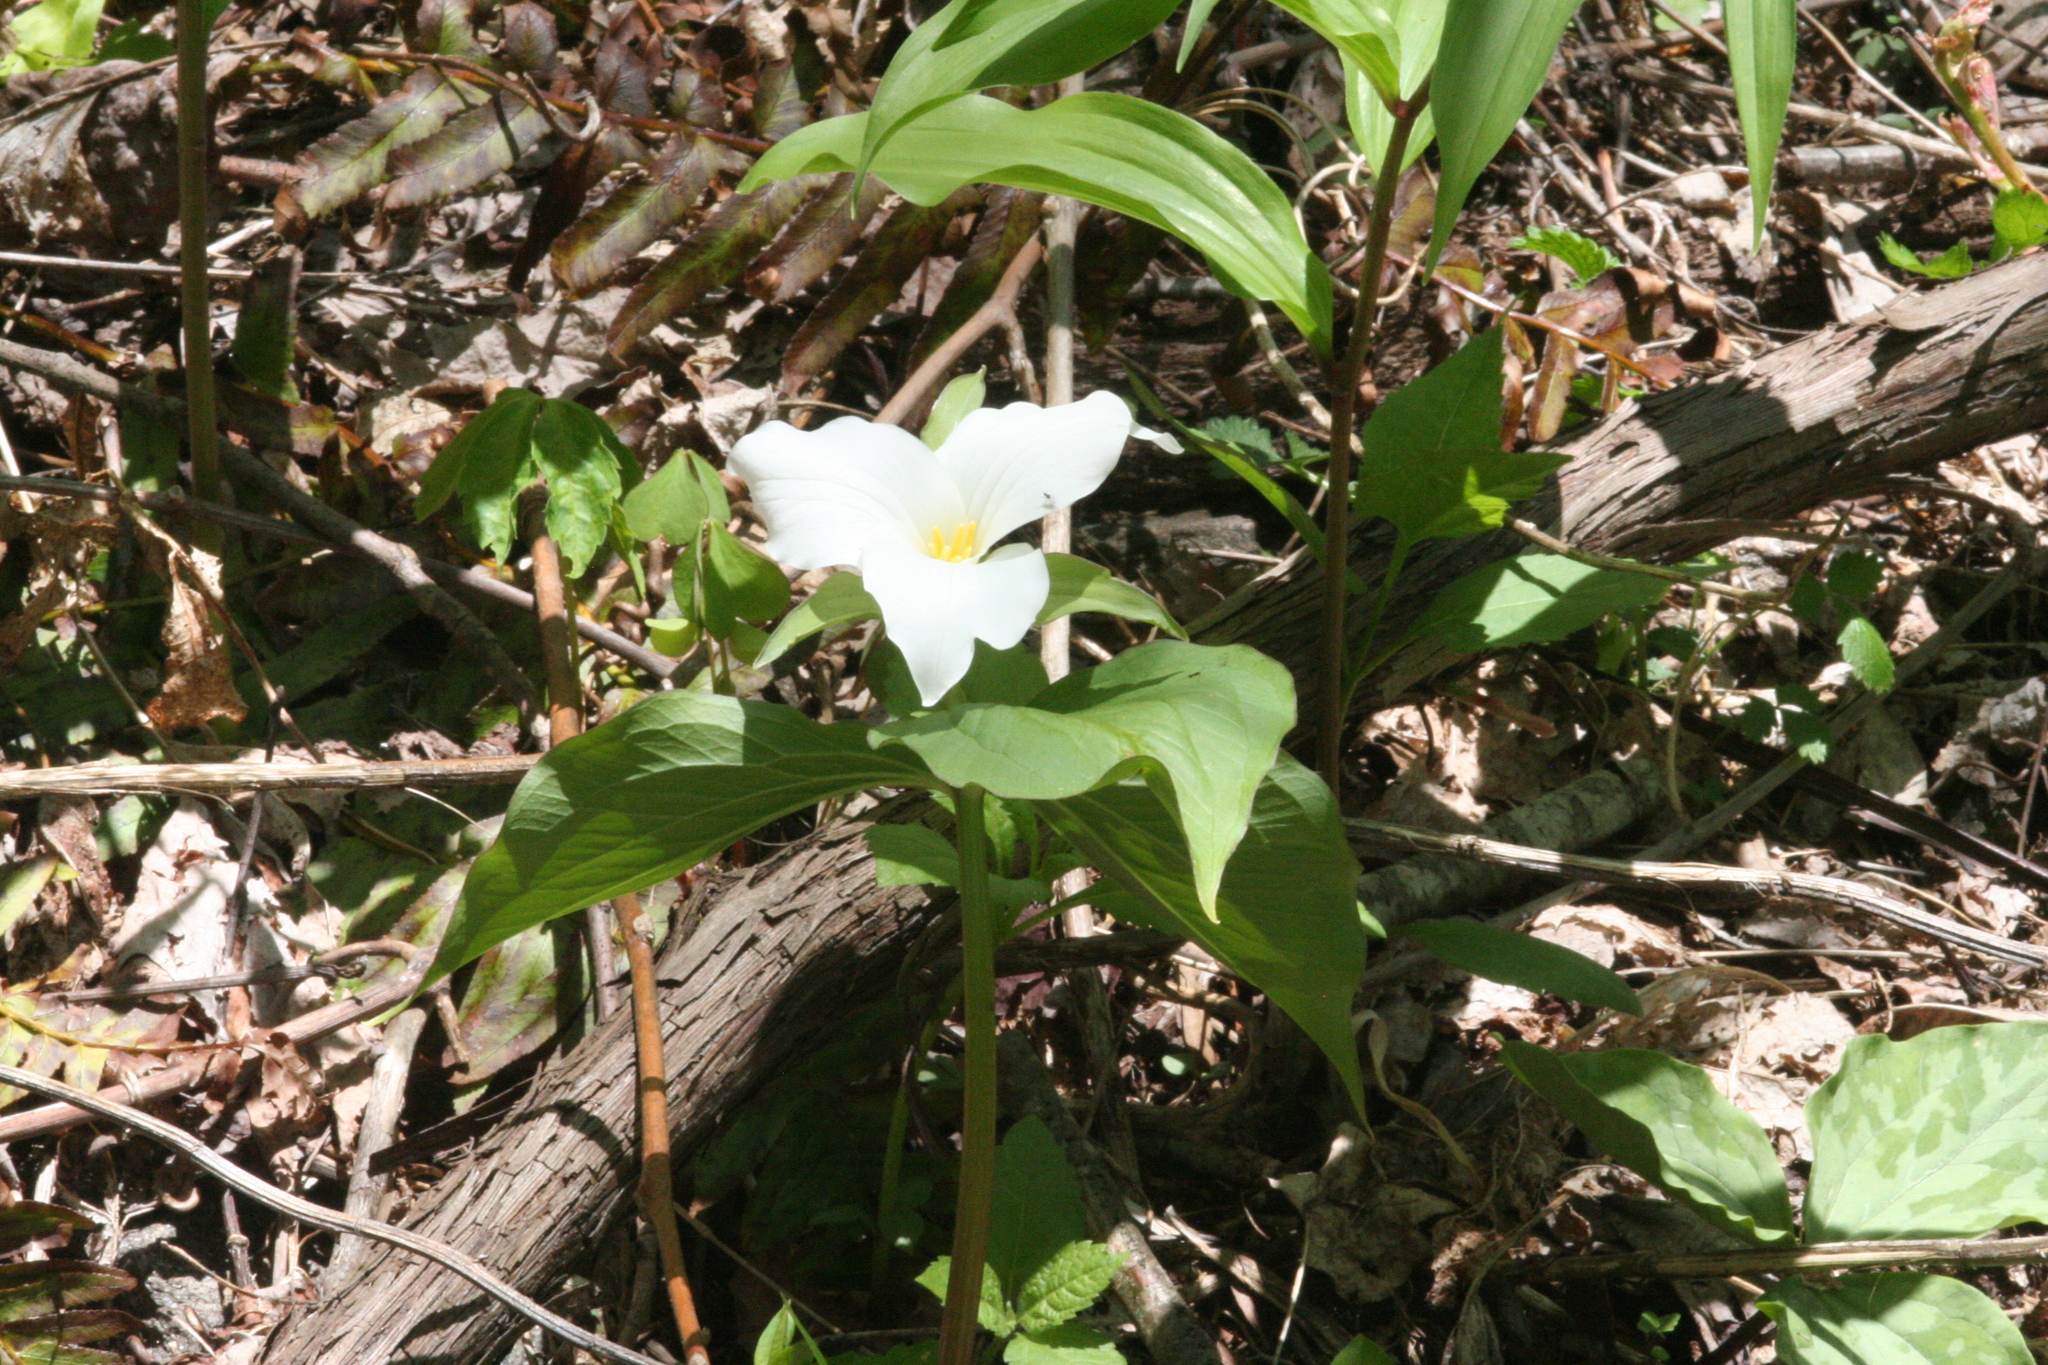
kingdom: Plantae
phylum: Tracheophyta
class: Liliopsida
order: Liliales
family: Melanthiaceae
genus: Trillium
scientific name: Trillium grandiflorum
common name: Great white trillium
